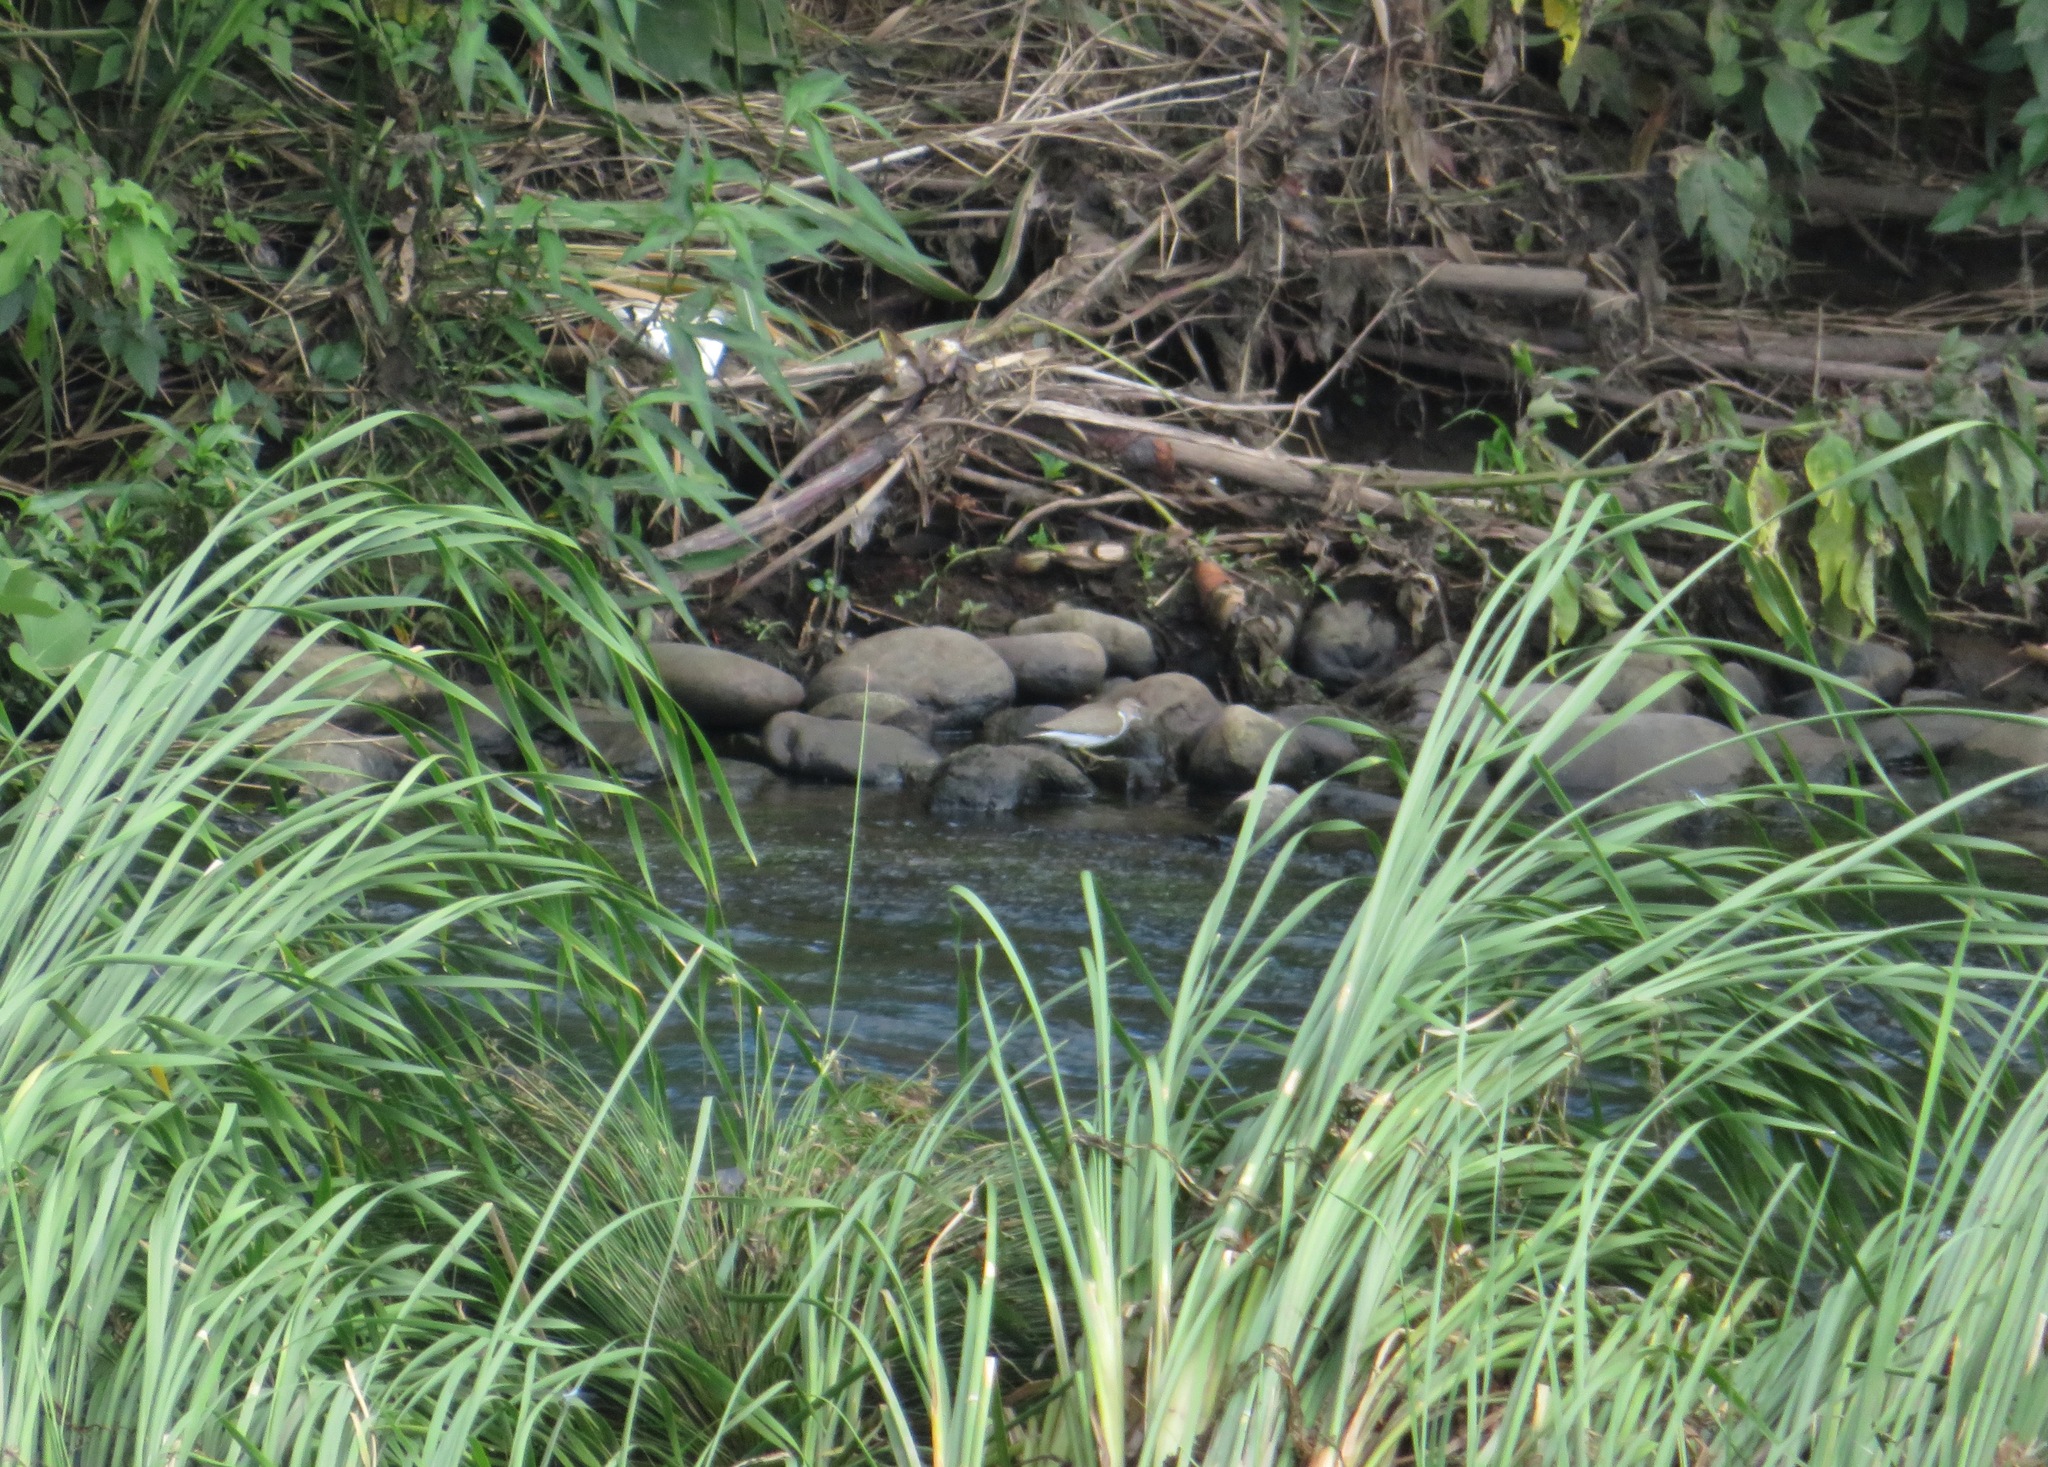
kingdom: Animalia
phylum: Chordata
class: Aves
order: Charadriiformes
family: Scolopacidae
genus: Actitis
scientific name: Actitis hypoleucos
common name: Common sandpiper
